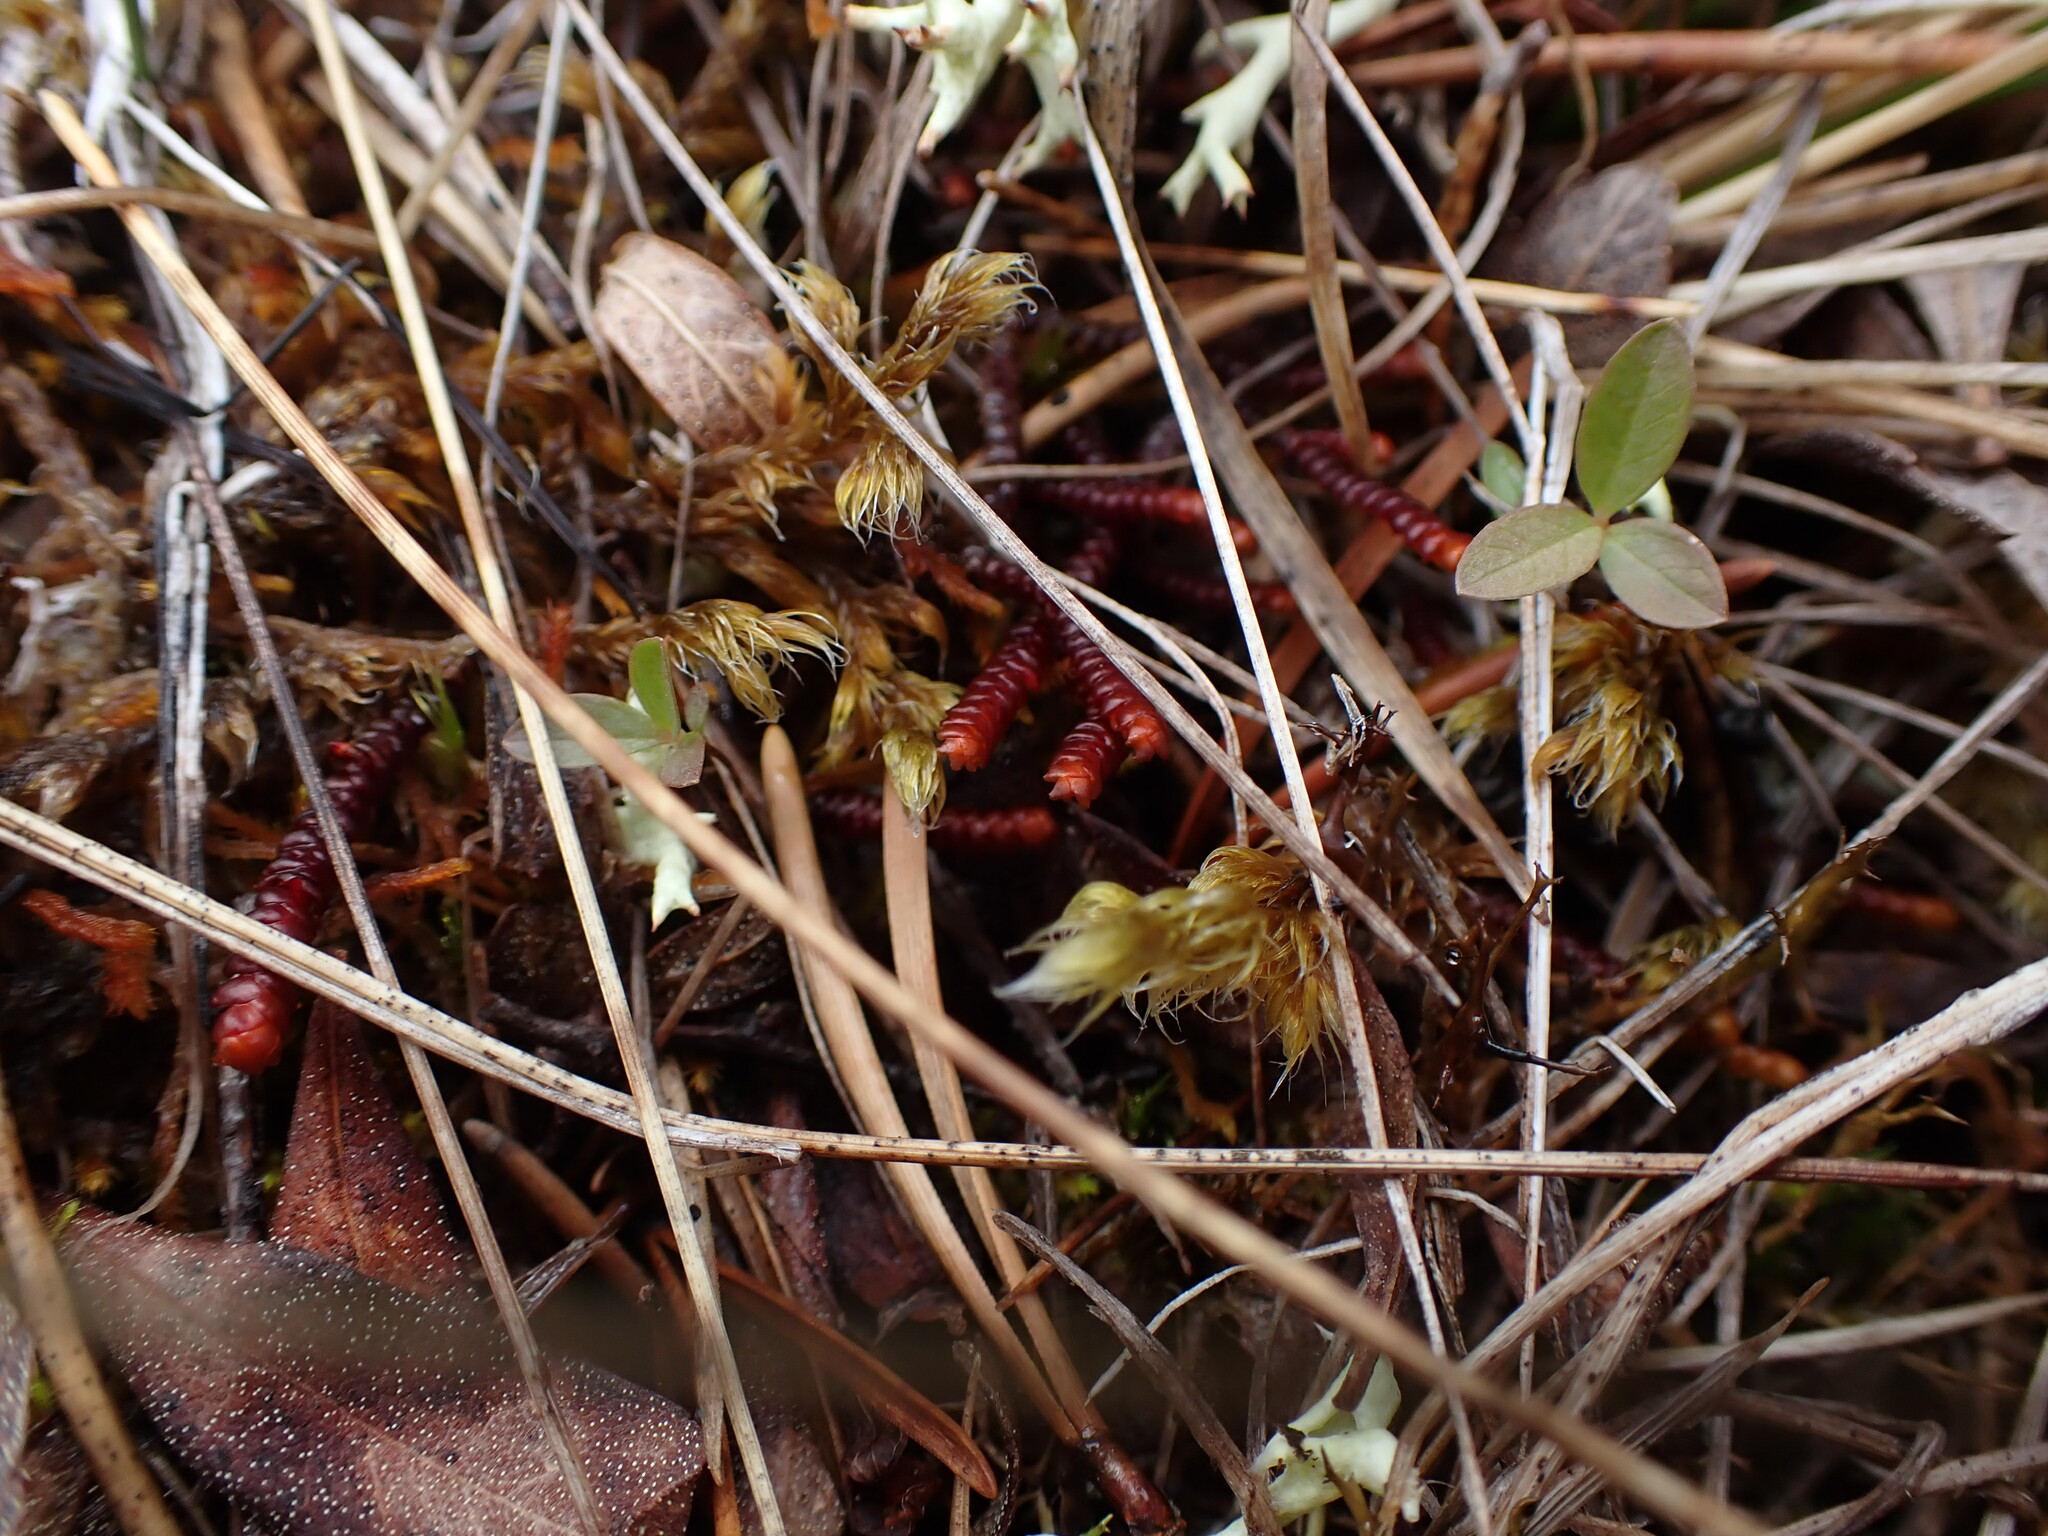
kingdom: Plantae
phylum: Marchantiophyta
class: Jungermanniopsida
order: Pleuroziales
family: Pleuroziaceae
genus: Pleurozia
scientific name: Pleurozia purpurea
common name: Purple spoonwort
